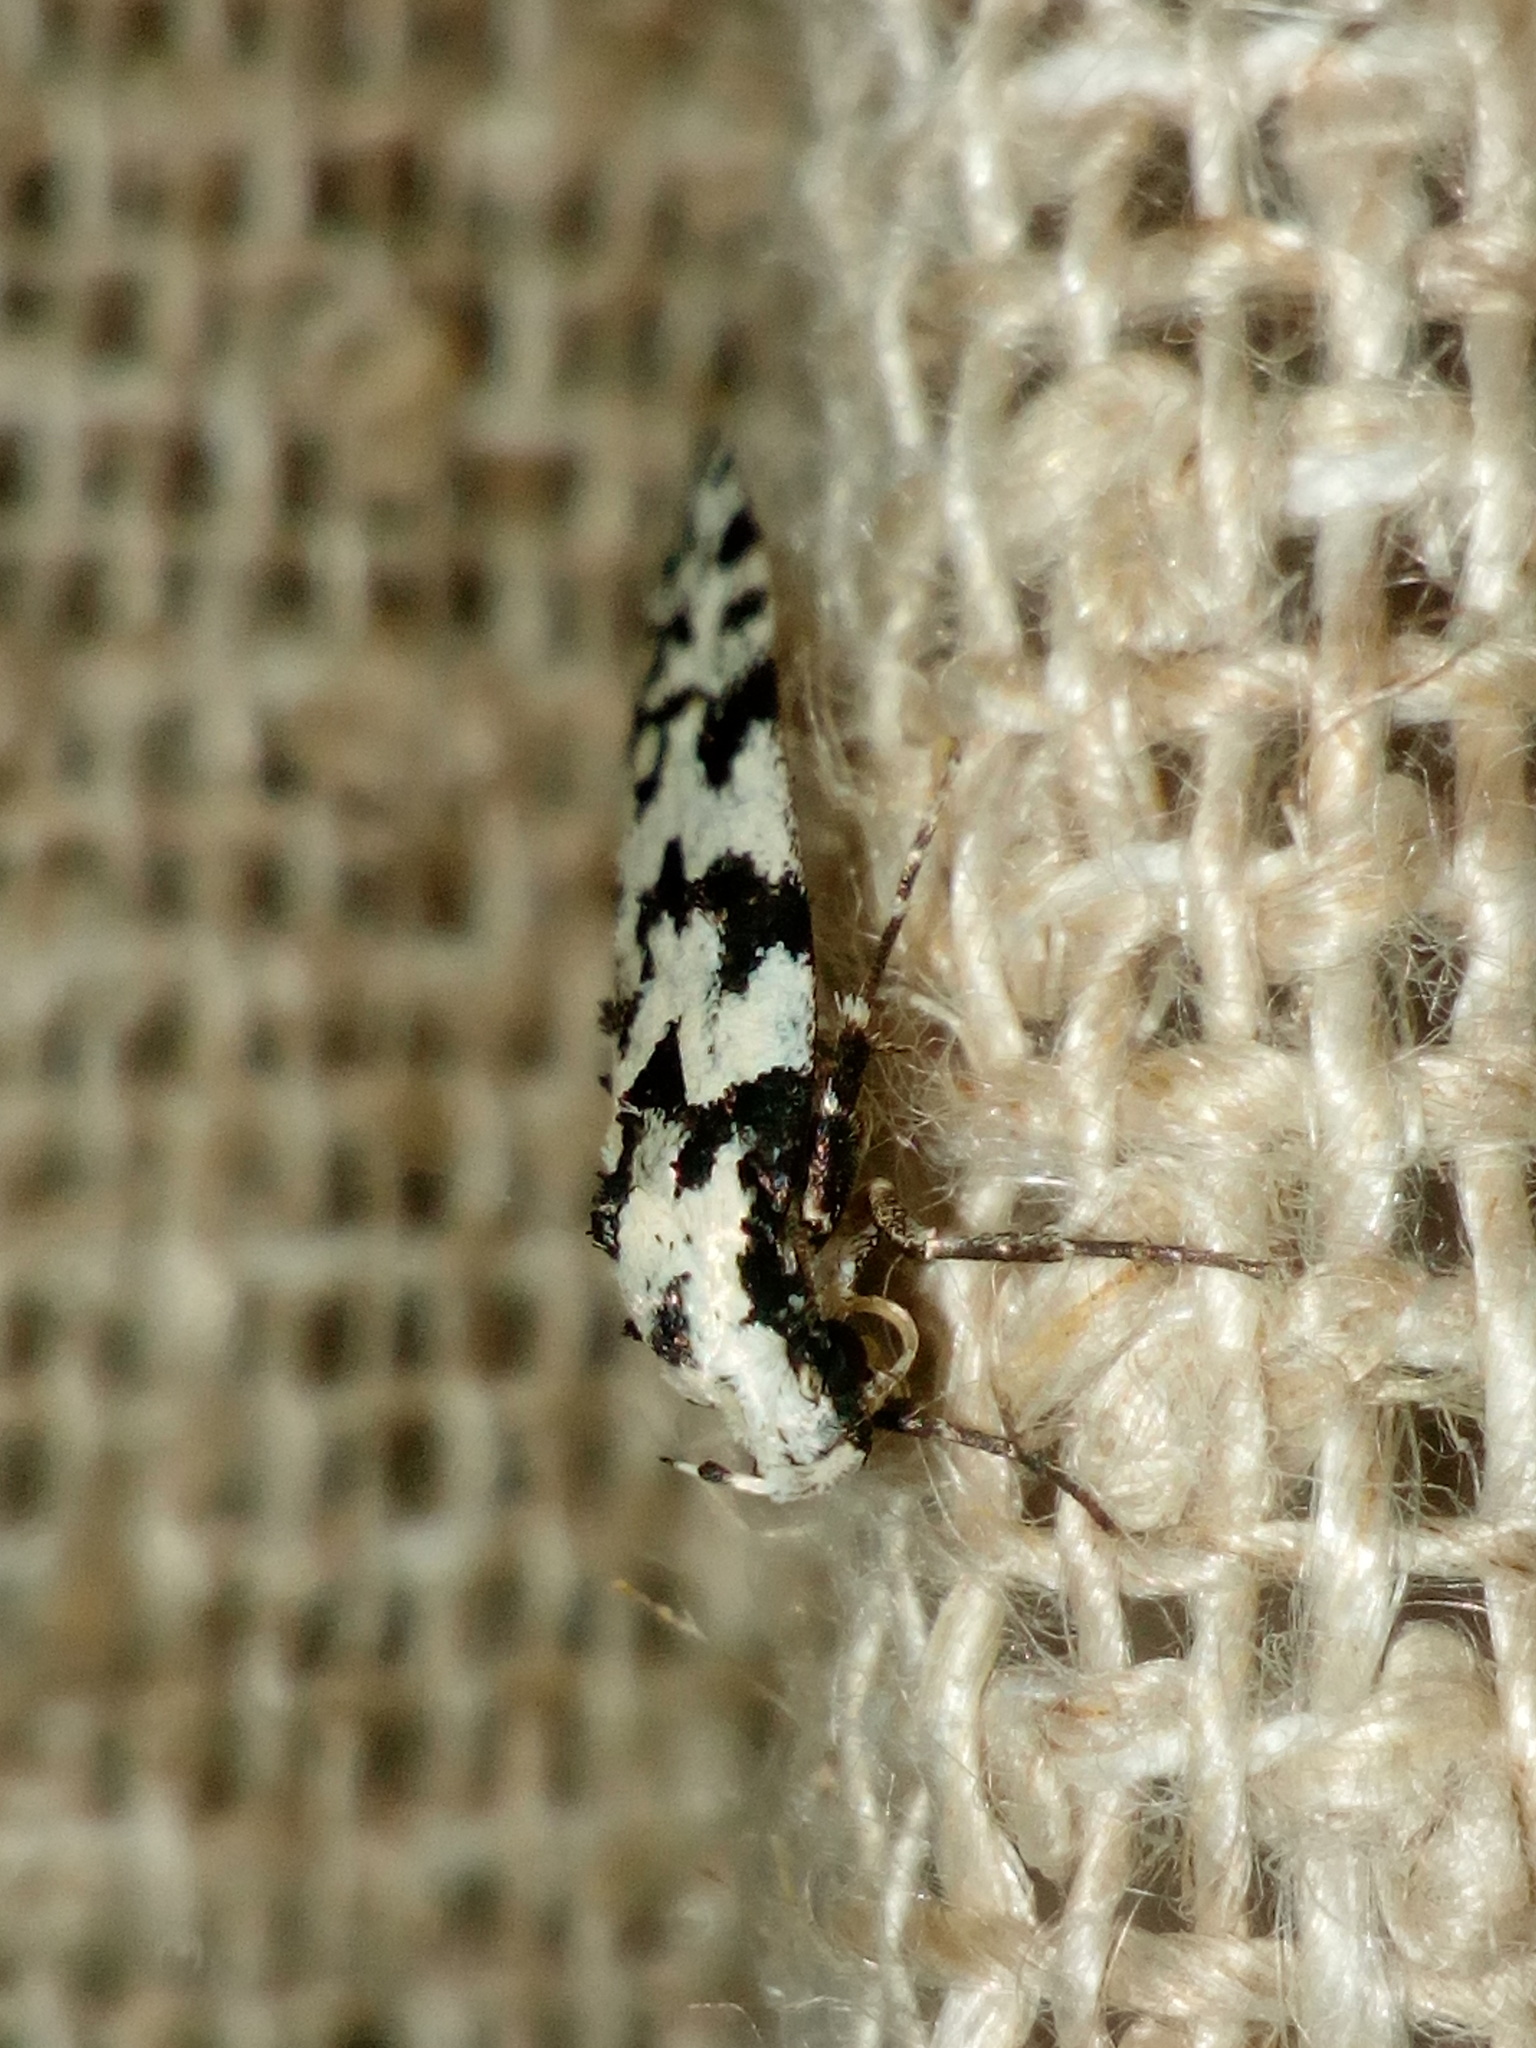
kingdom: Animalia
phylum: Arthropoda
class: Insecta
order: Lepidoptera
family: Oecophoridae
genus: Izatha
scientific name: Izatha katadiktya
